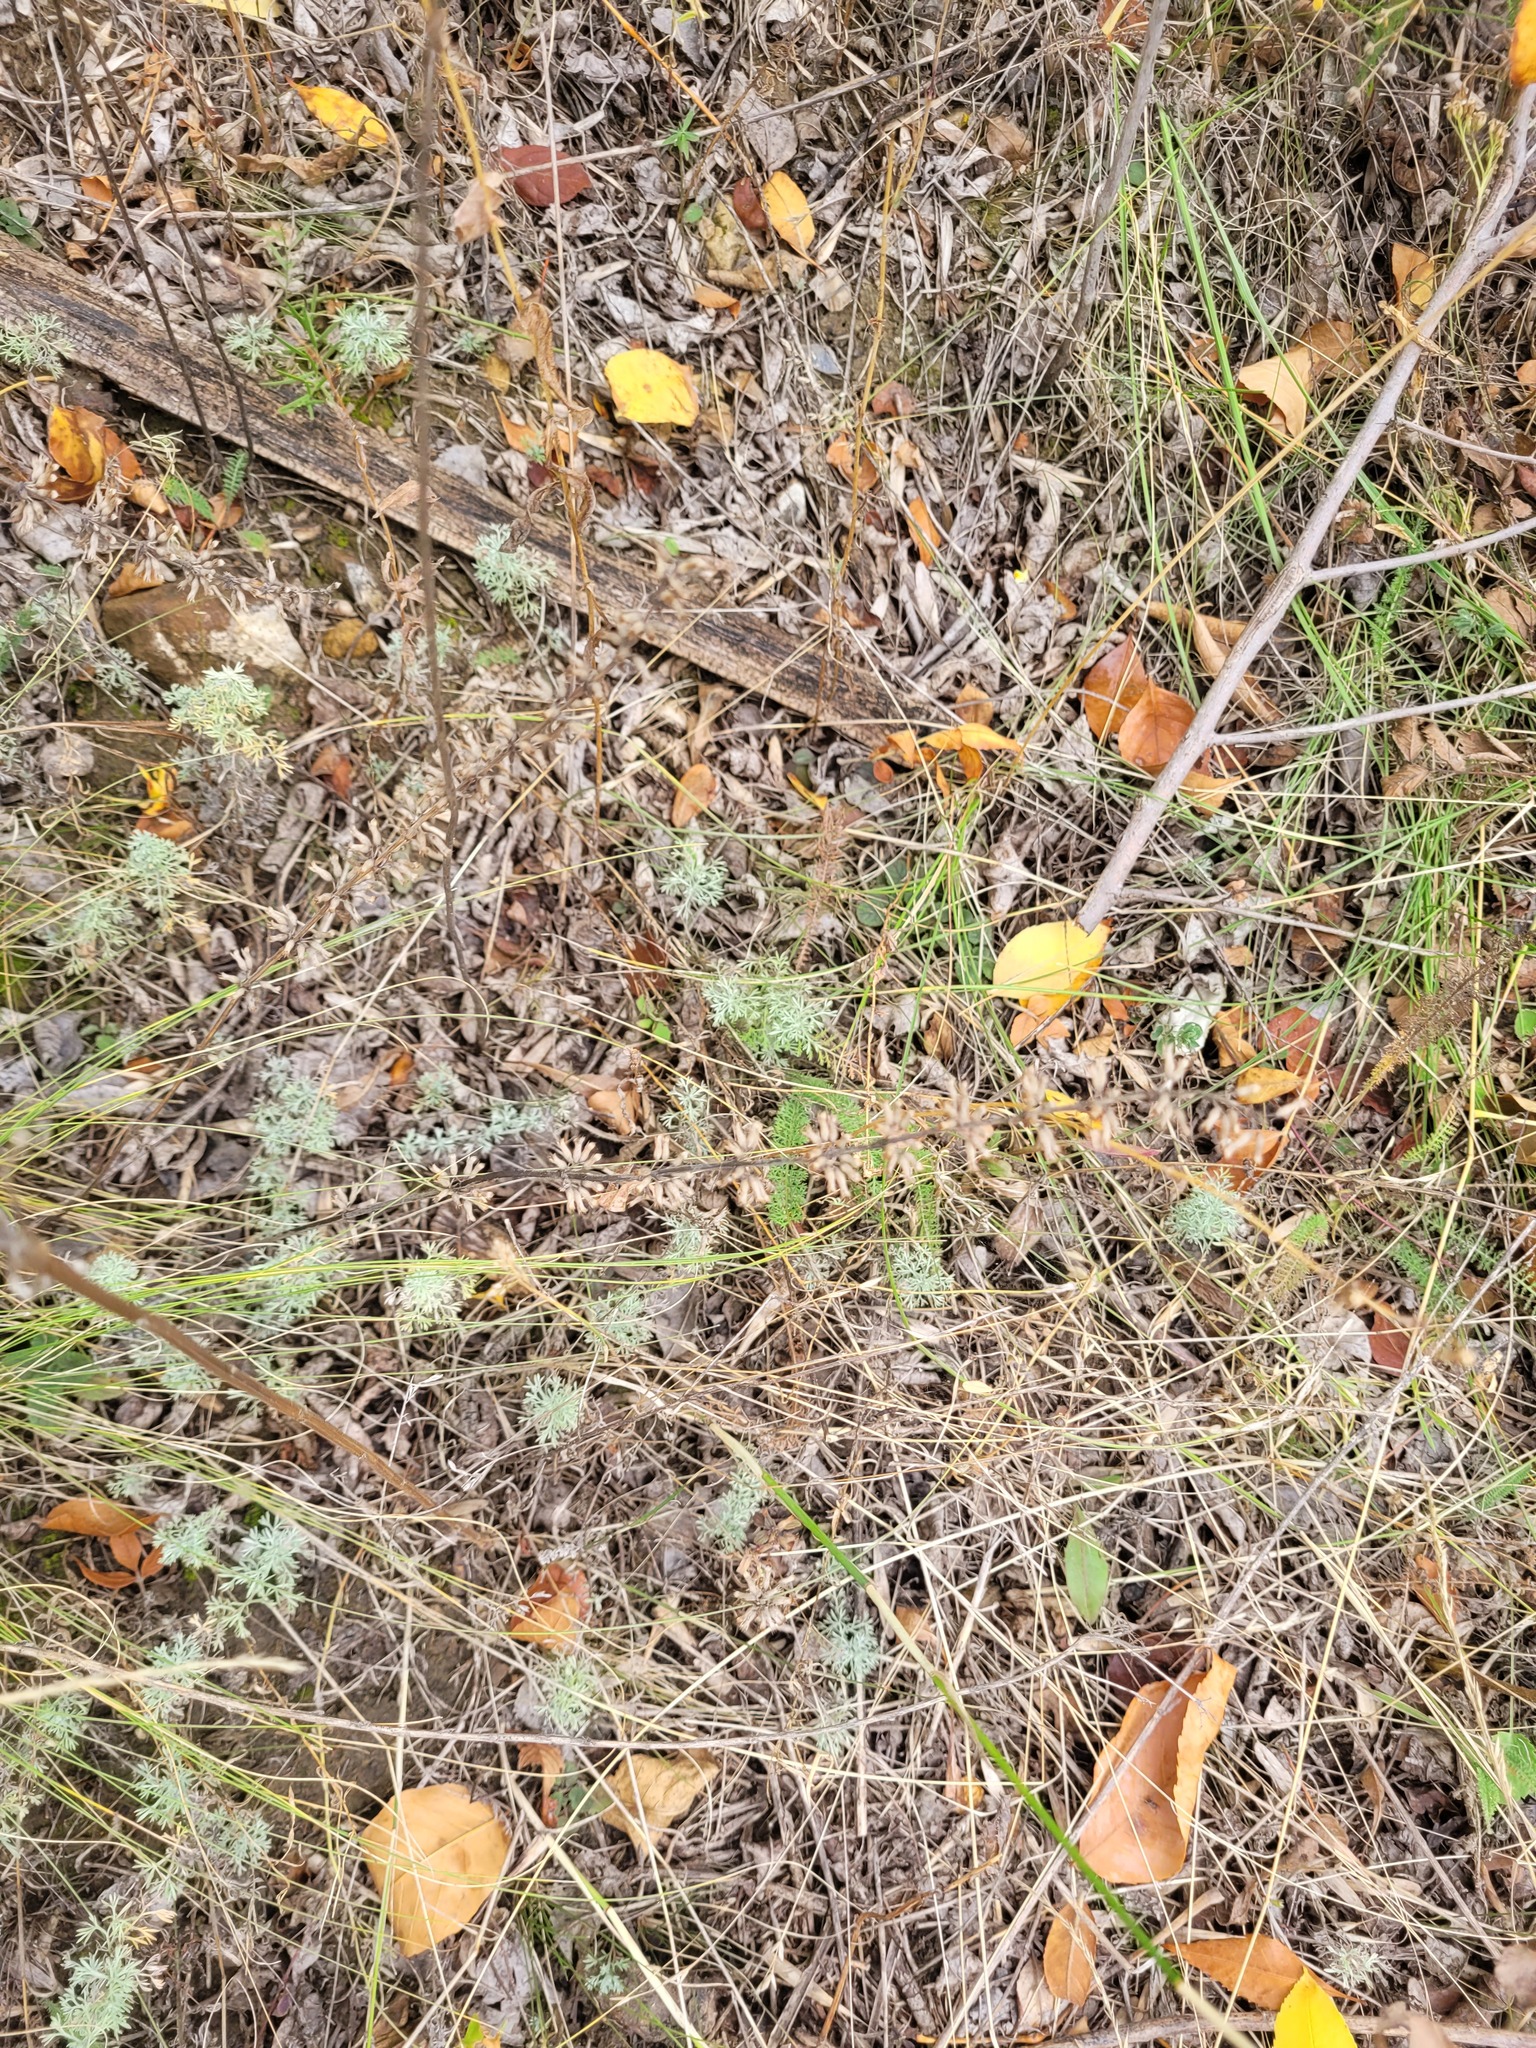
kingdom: Plantae
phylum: Tracheophyta
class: Magnoliopsida
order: Lamiales
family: Lamiaceae
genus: Dracocephalum
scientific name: Dracocephalum thymiflorum
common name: Thymeleaf dragonhead
